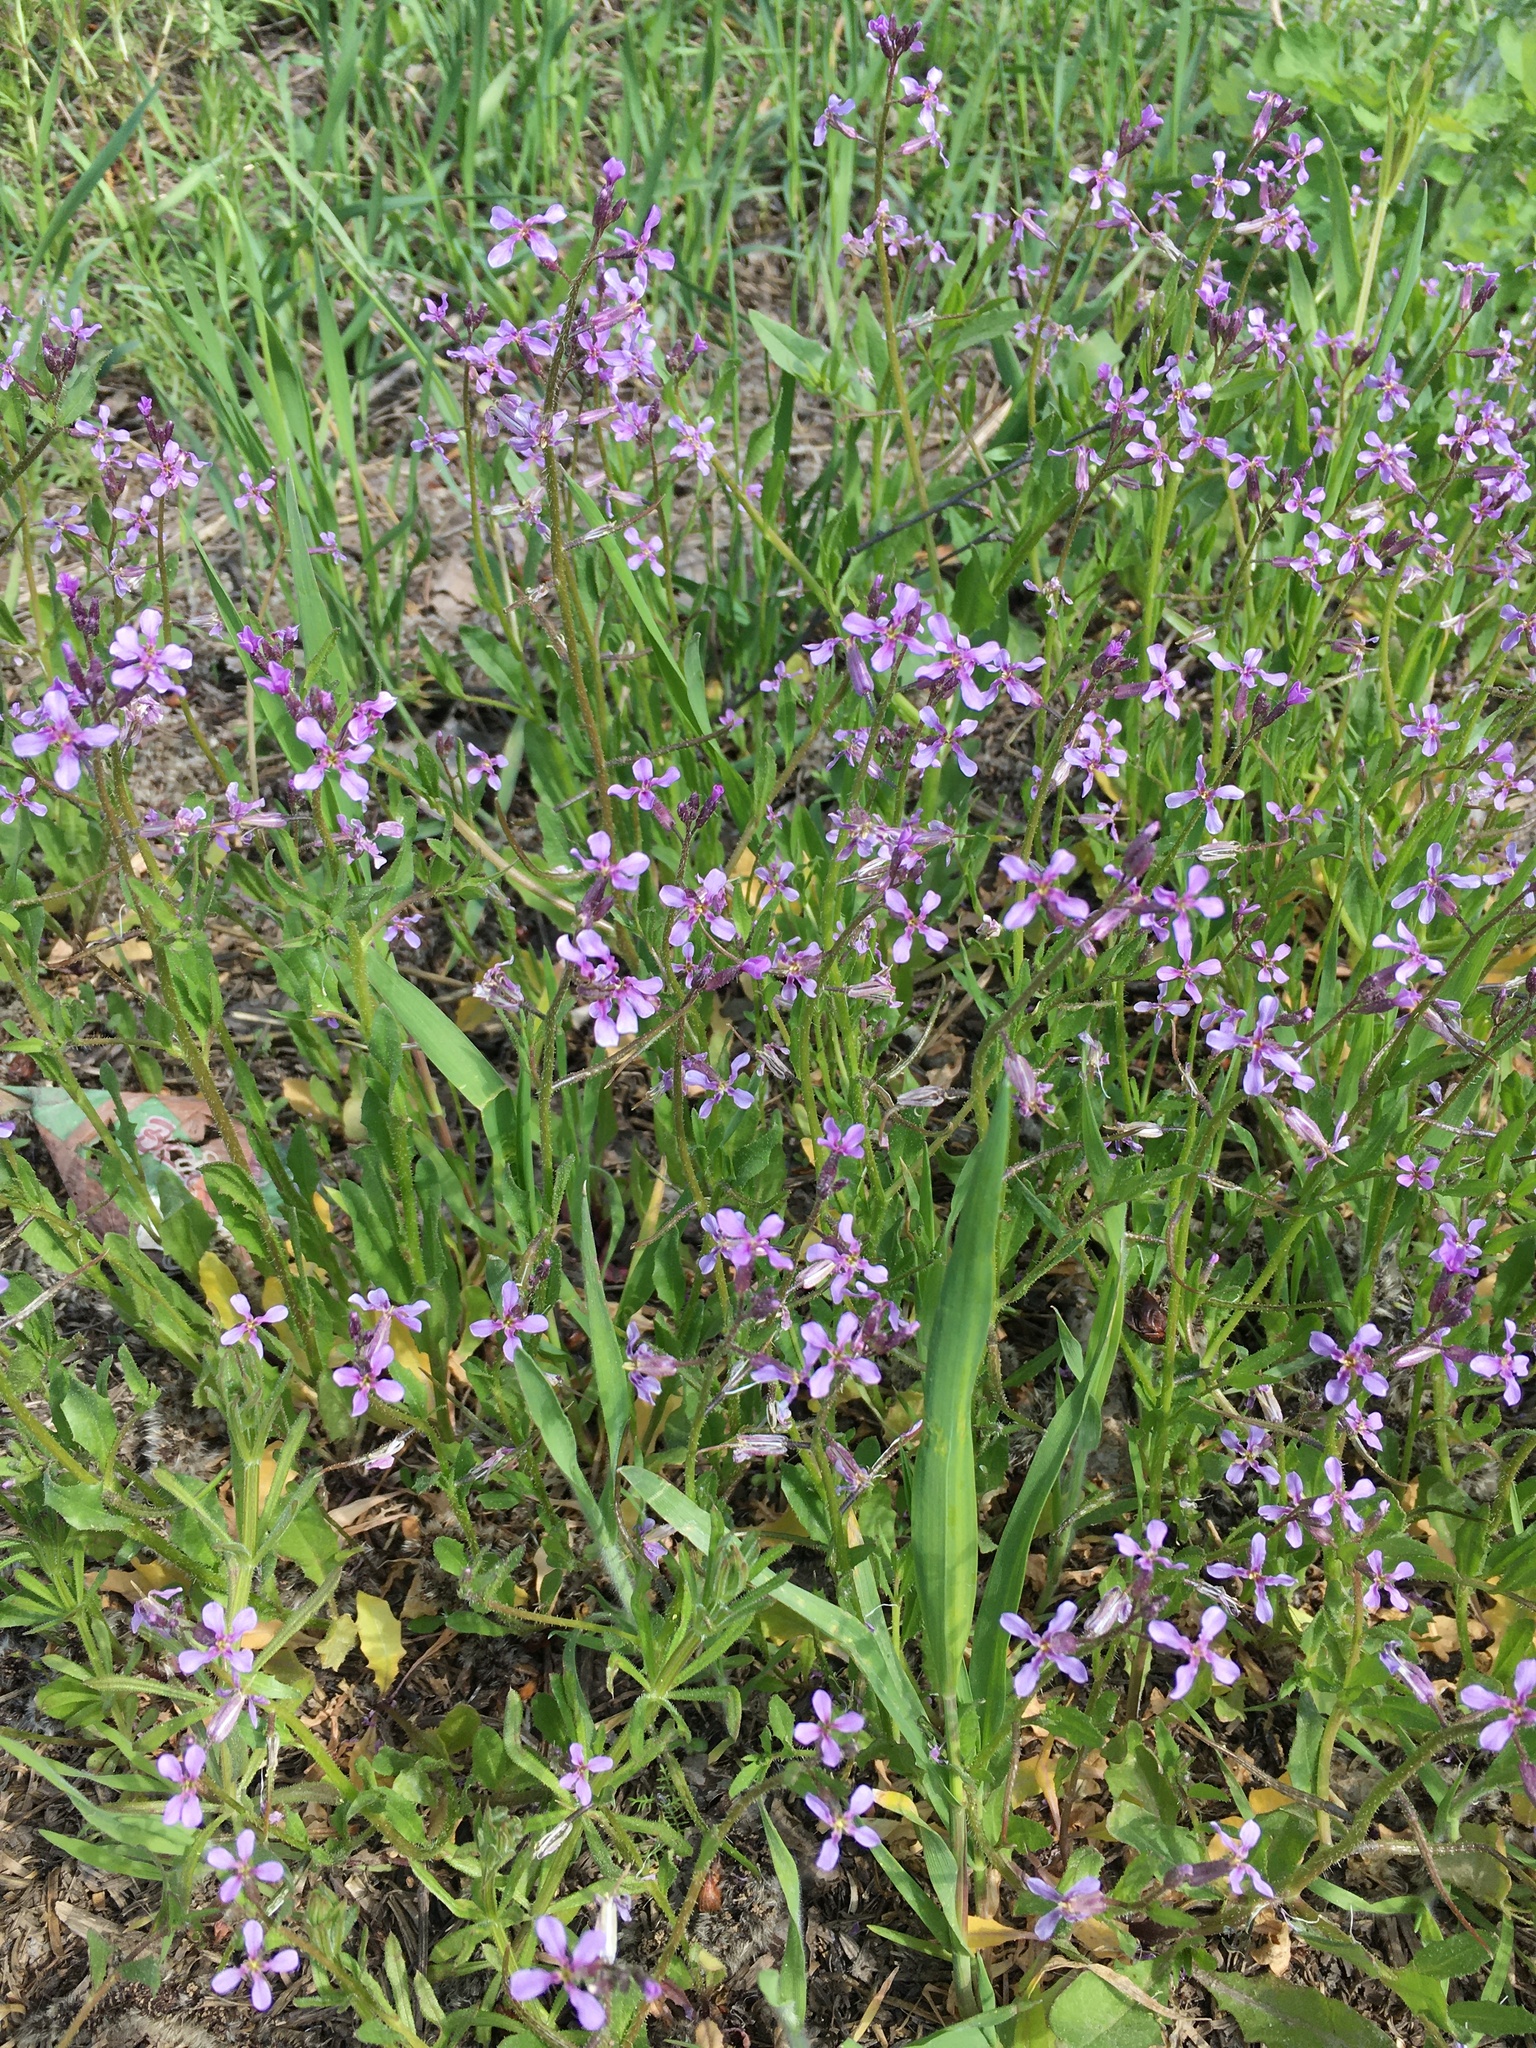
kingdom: Plantae
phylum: Tracheophyta
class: Magnoliopsida
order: Brassicales
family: Brassicaceae
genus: Chorispora
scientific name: Chorispora tenella
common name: Crossflower
